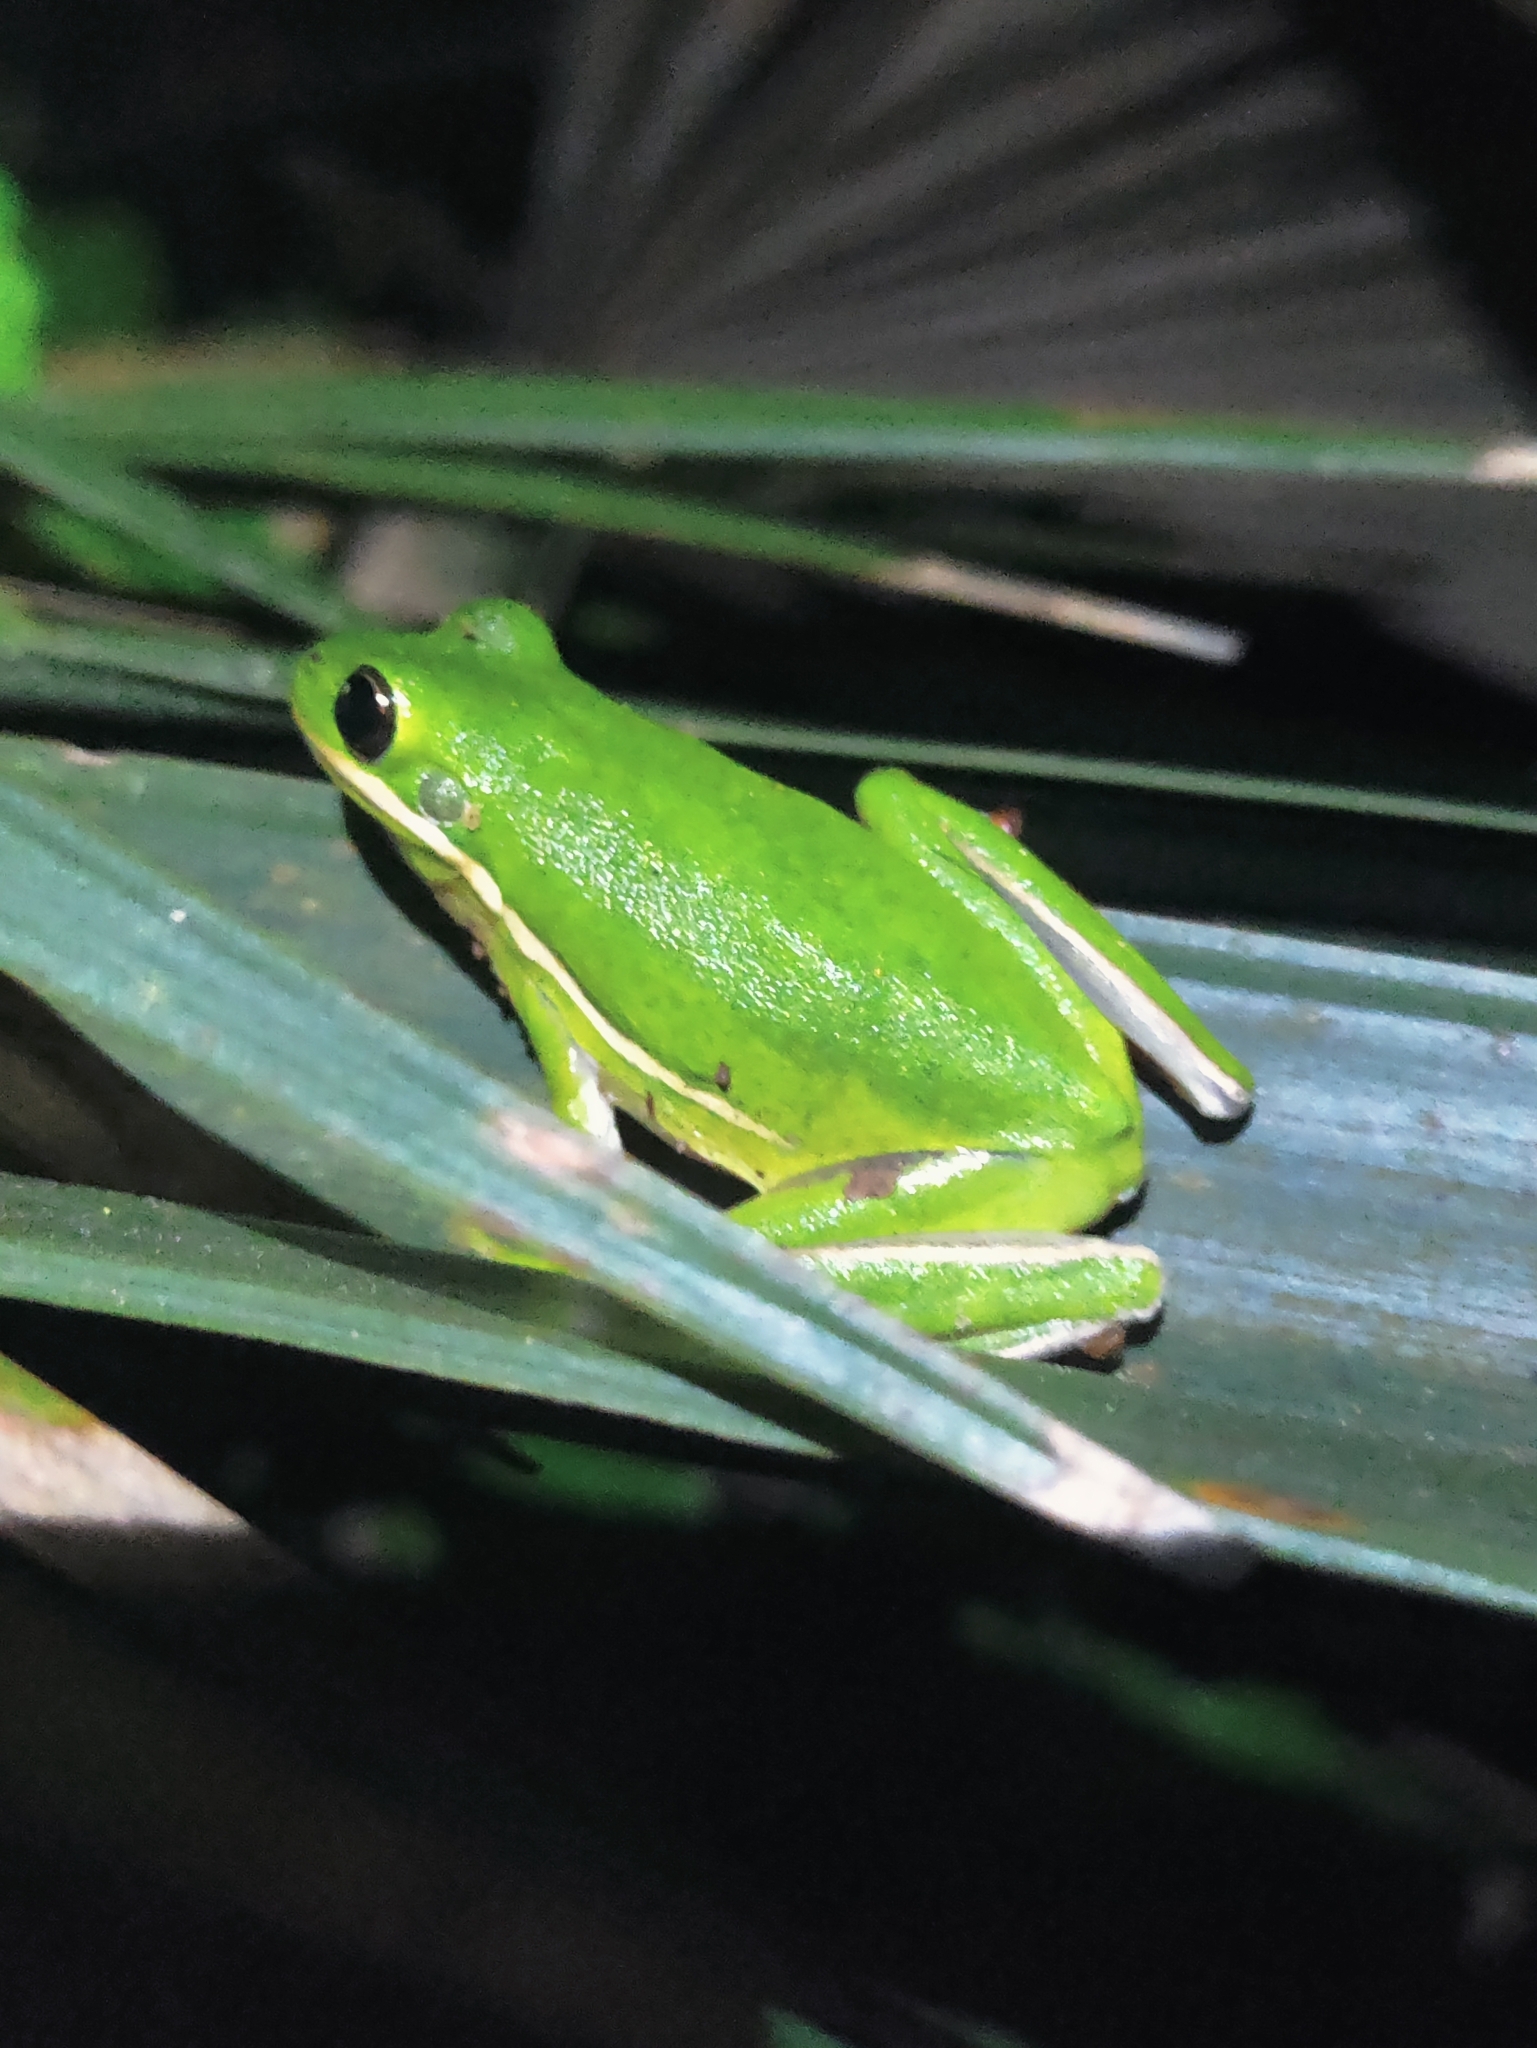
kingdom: Animalia
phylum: Chordata
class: Amphibia
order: Anura
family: Hylidae
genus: Dryophytes
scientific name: Dryophytes cinereus
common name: Green treefrog
